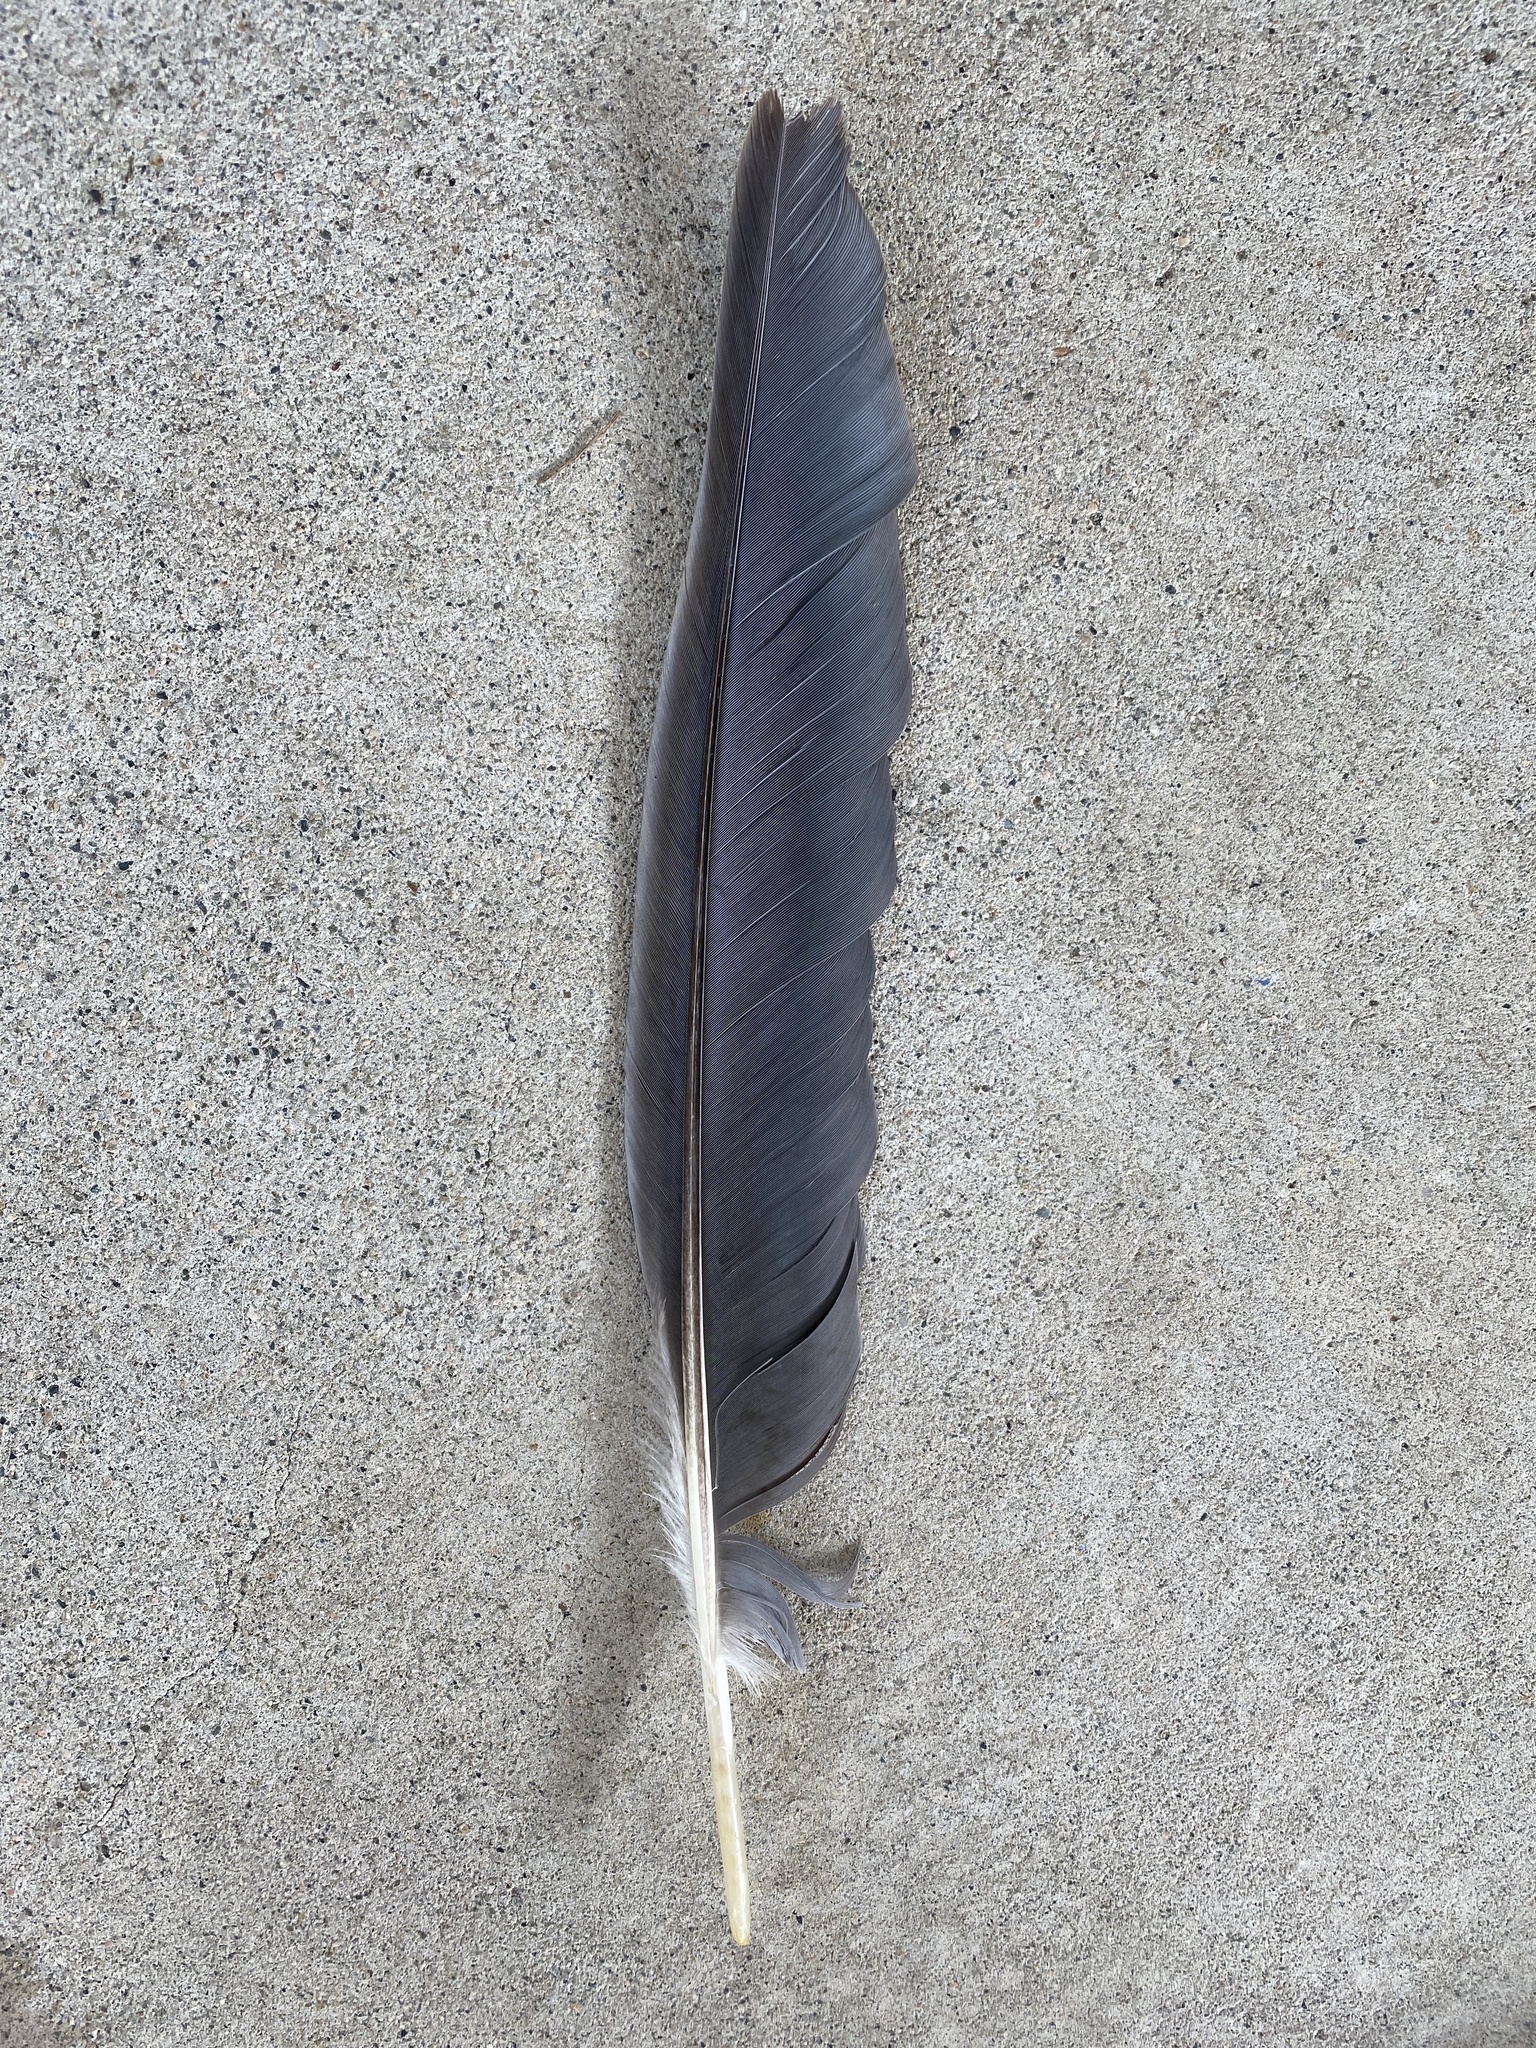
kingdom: Animalia
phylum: Chordata
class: Aves
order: Pelecaniformes
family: Ardeidae
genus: Ardea
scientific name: Ardea herodias
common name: Great blue heron
